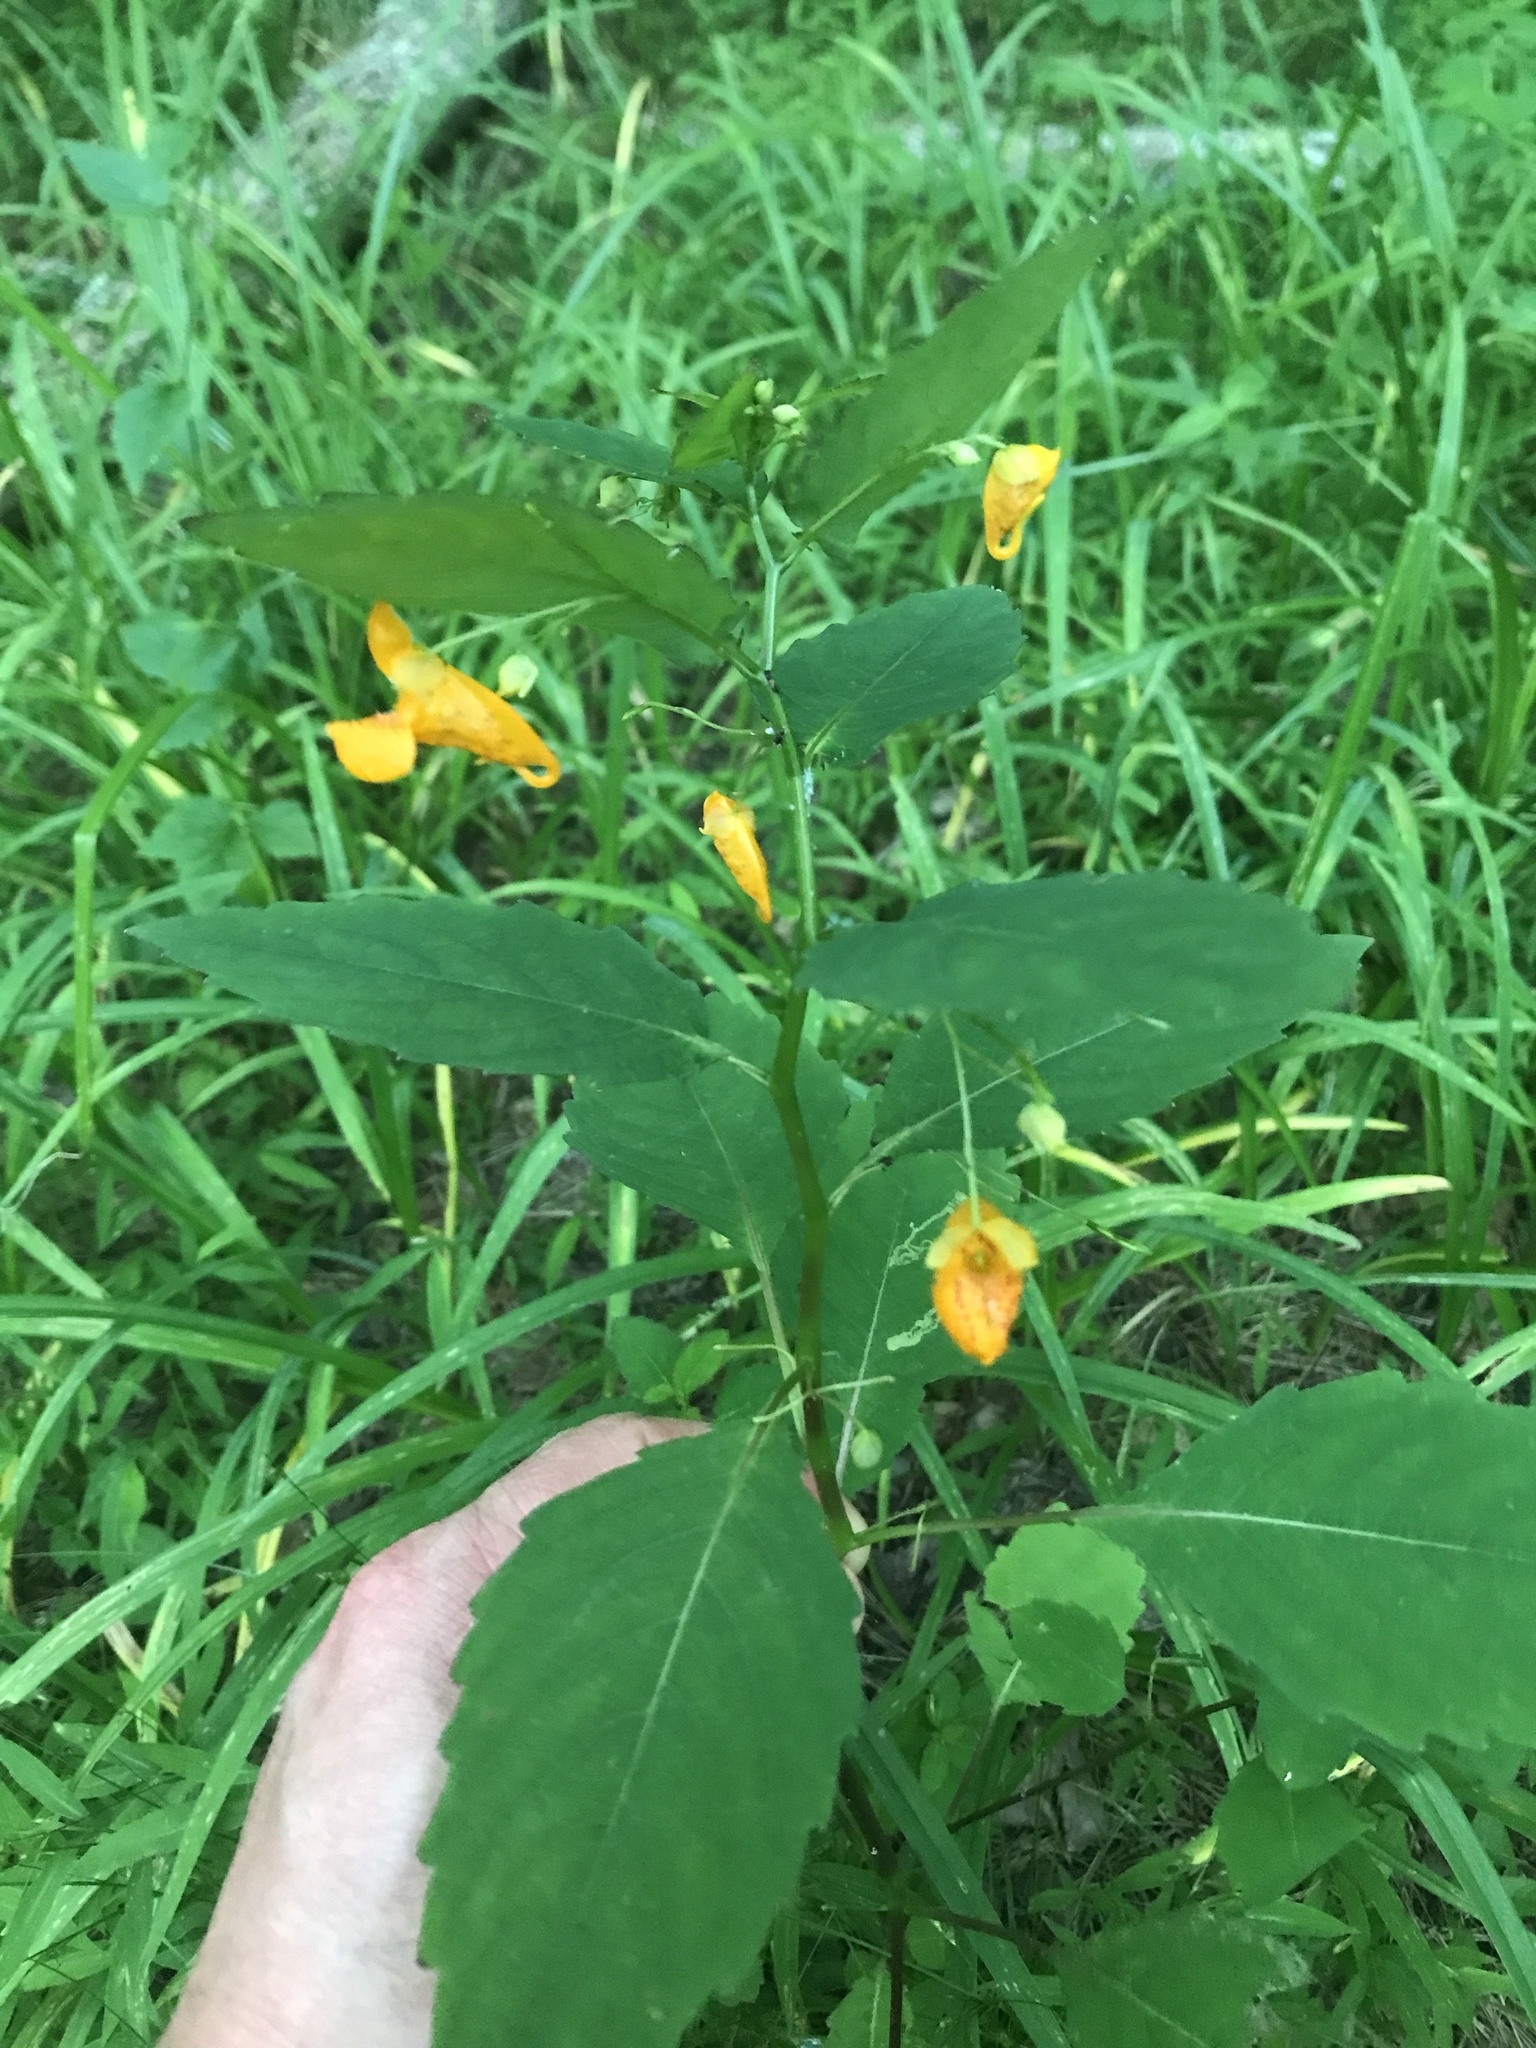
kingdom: Plantae
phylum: Tracheophyta
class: Magnoliopsida
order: Ericales
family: Balsaminaceae
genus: Impatiens
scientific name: Impatiens capensis
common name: Orange balsam
